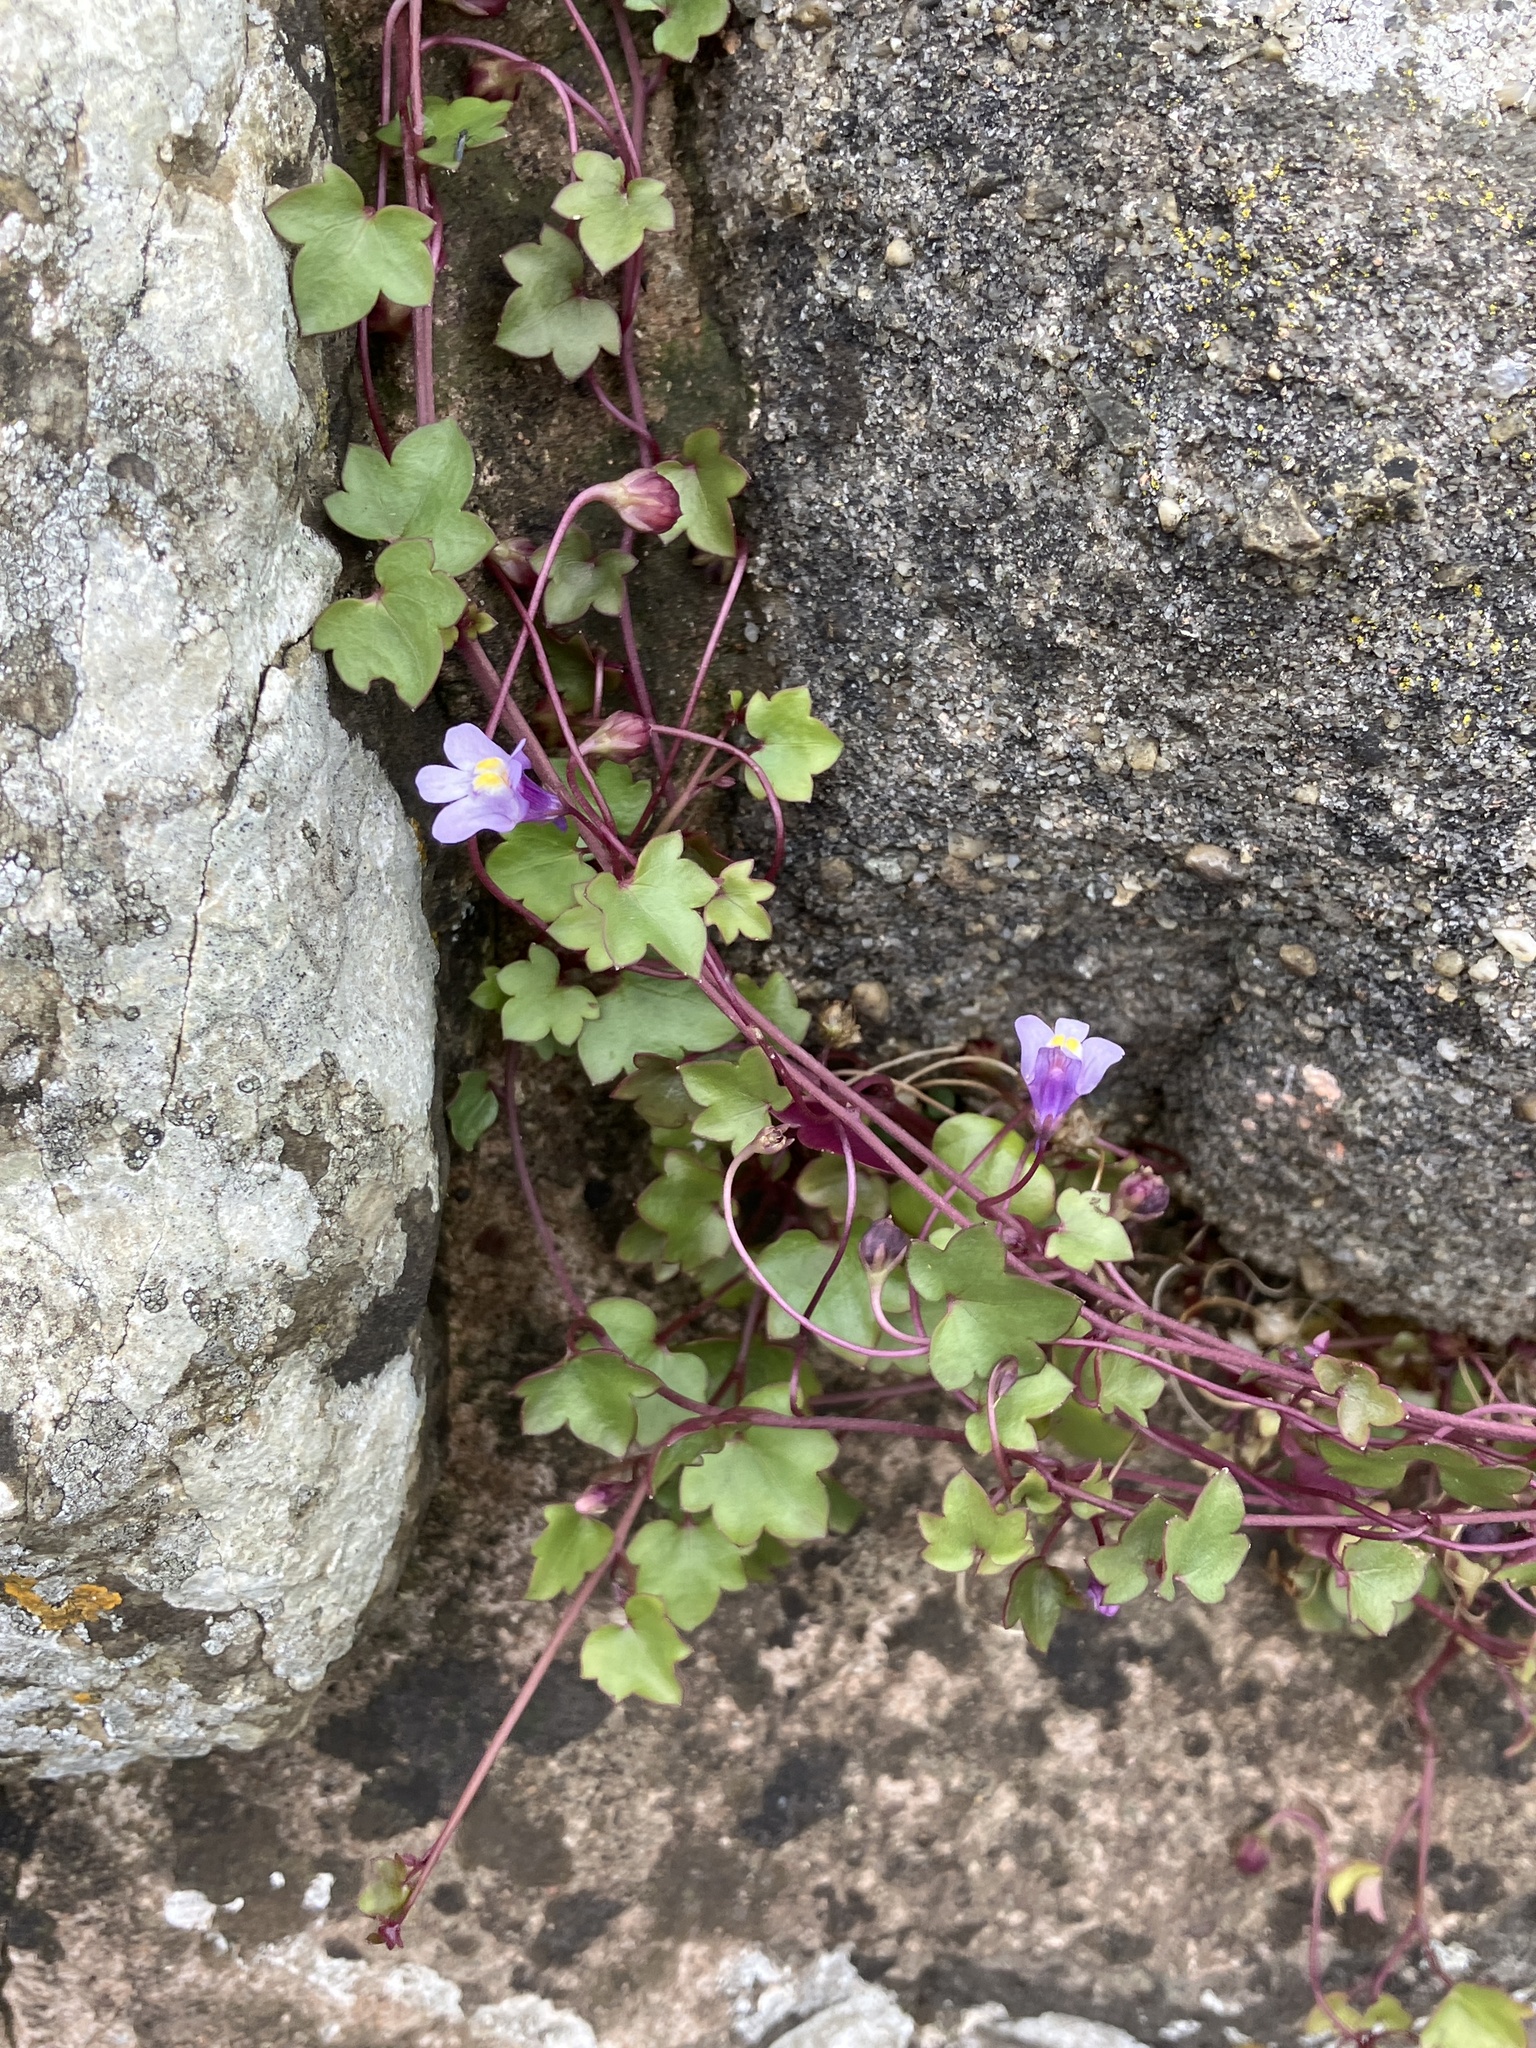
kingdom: Plantae
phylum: Tracheophyta
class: Magnoliopsida
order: Lamiales
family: Plantaginaceae
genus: Cymbalaria
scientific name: Cymbalaria muralis
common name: Ivy-leaved toadflax
